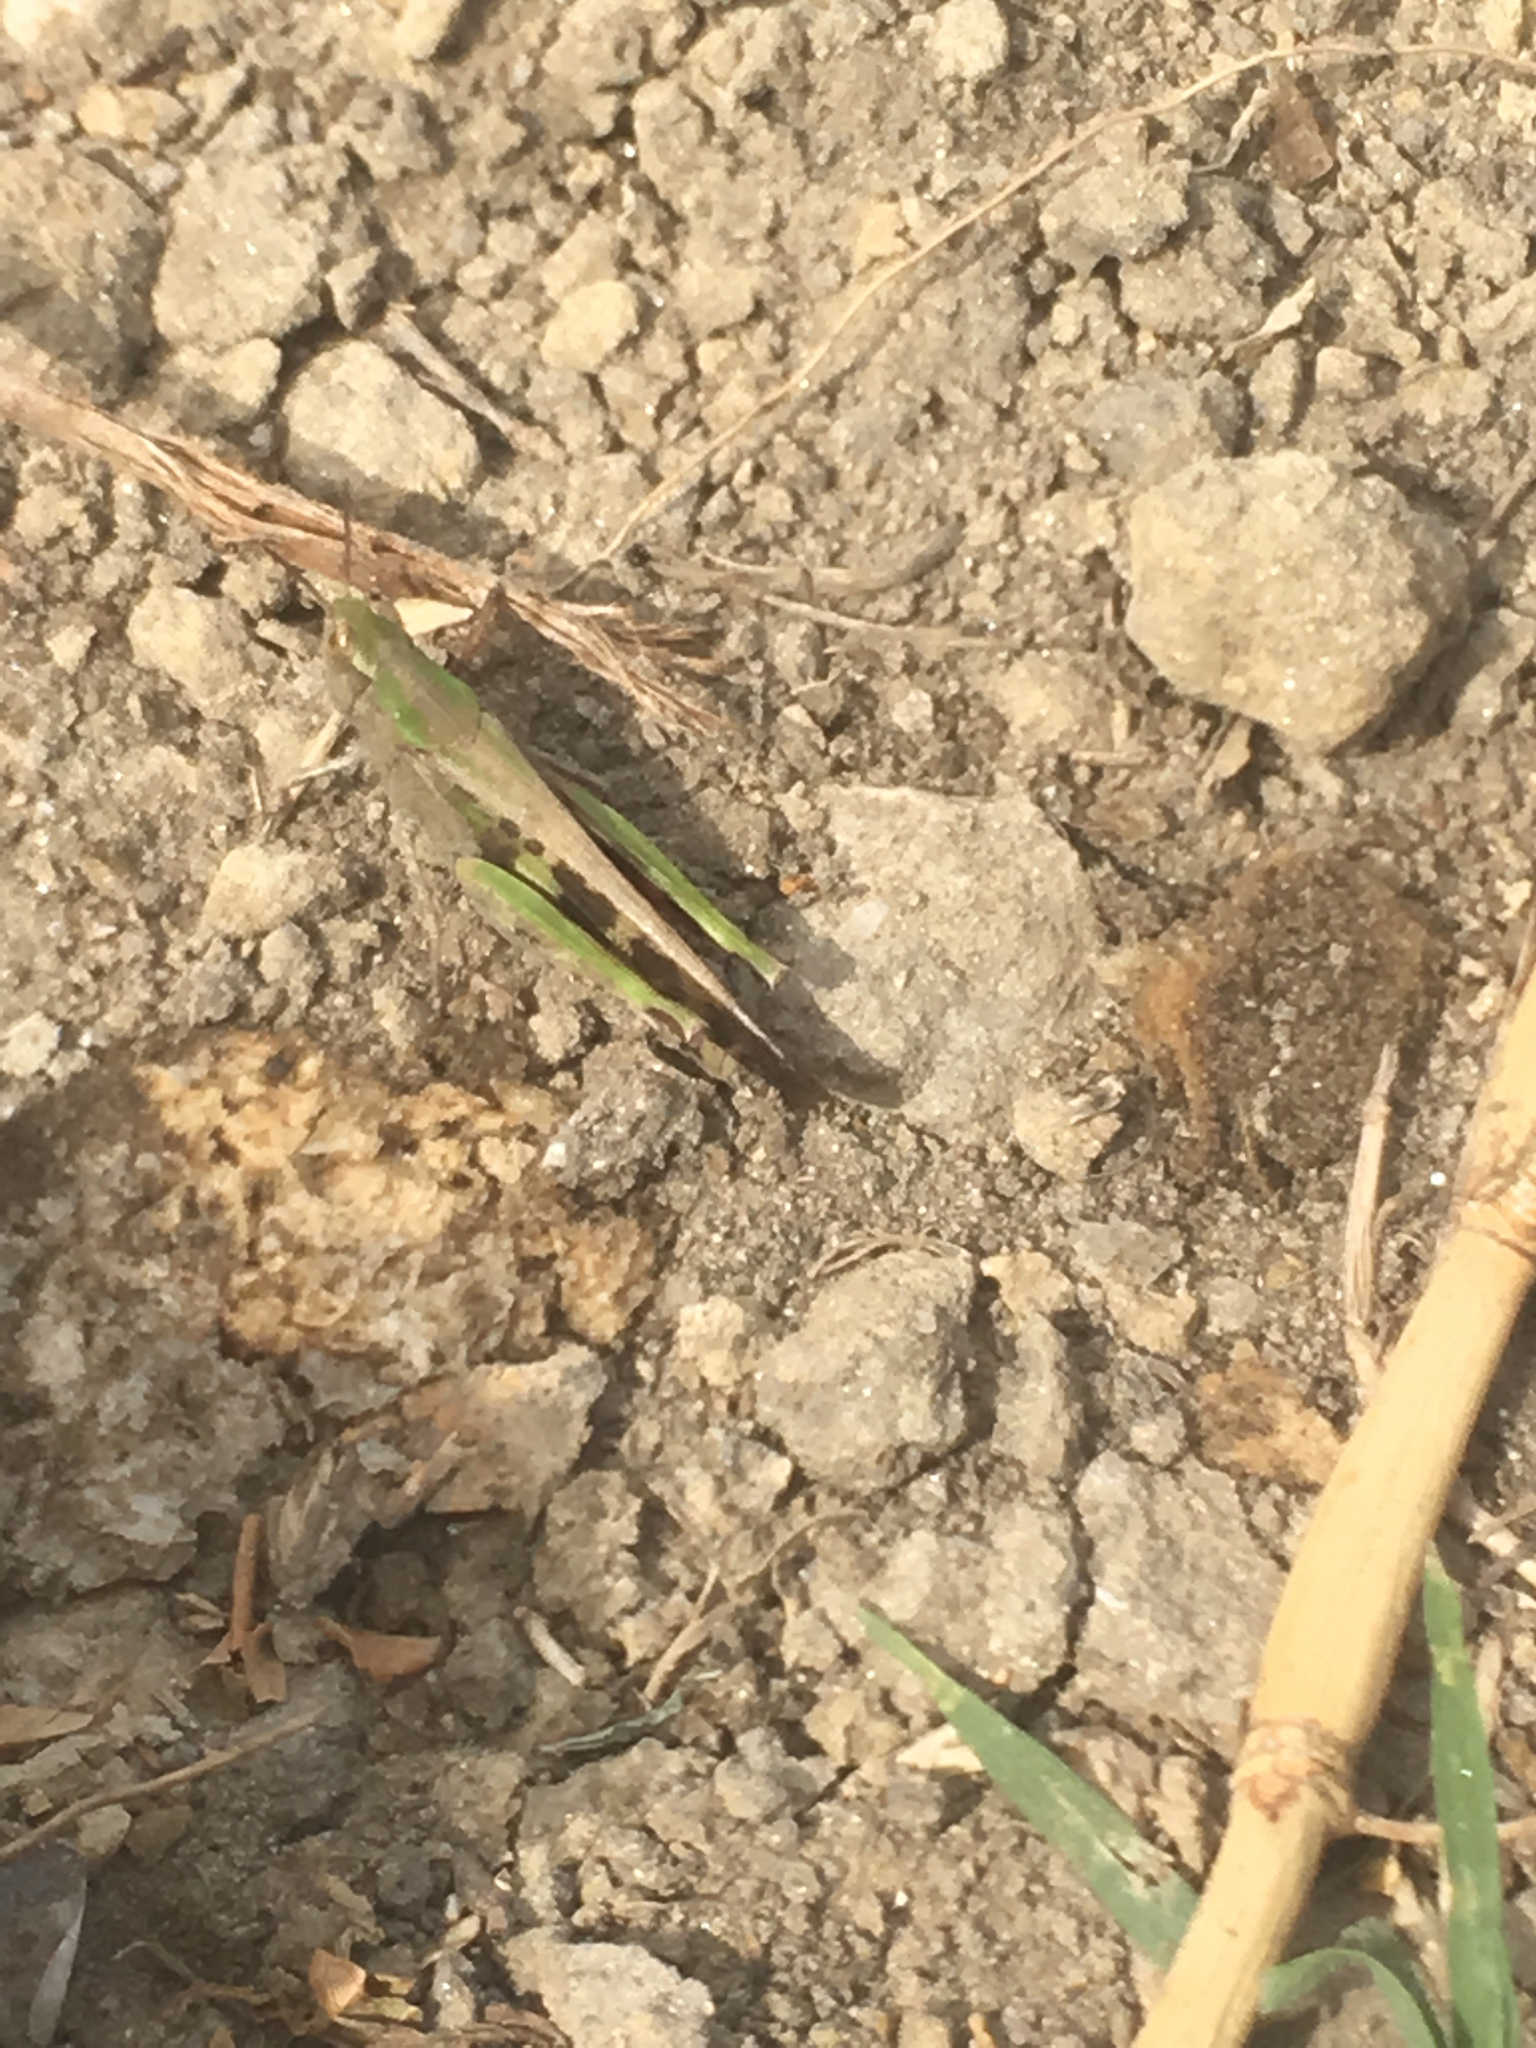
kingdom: Animalia
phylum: Arthropoda
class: Insecta
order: Orthoptera
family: Acrididae
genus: Aiolopus
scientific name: Aiolopus strepens
